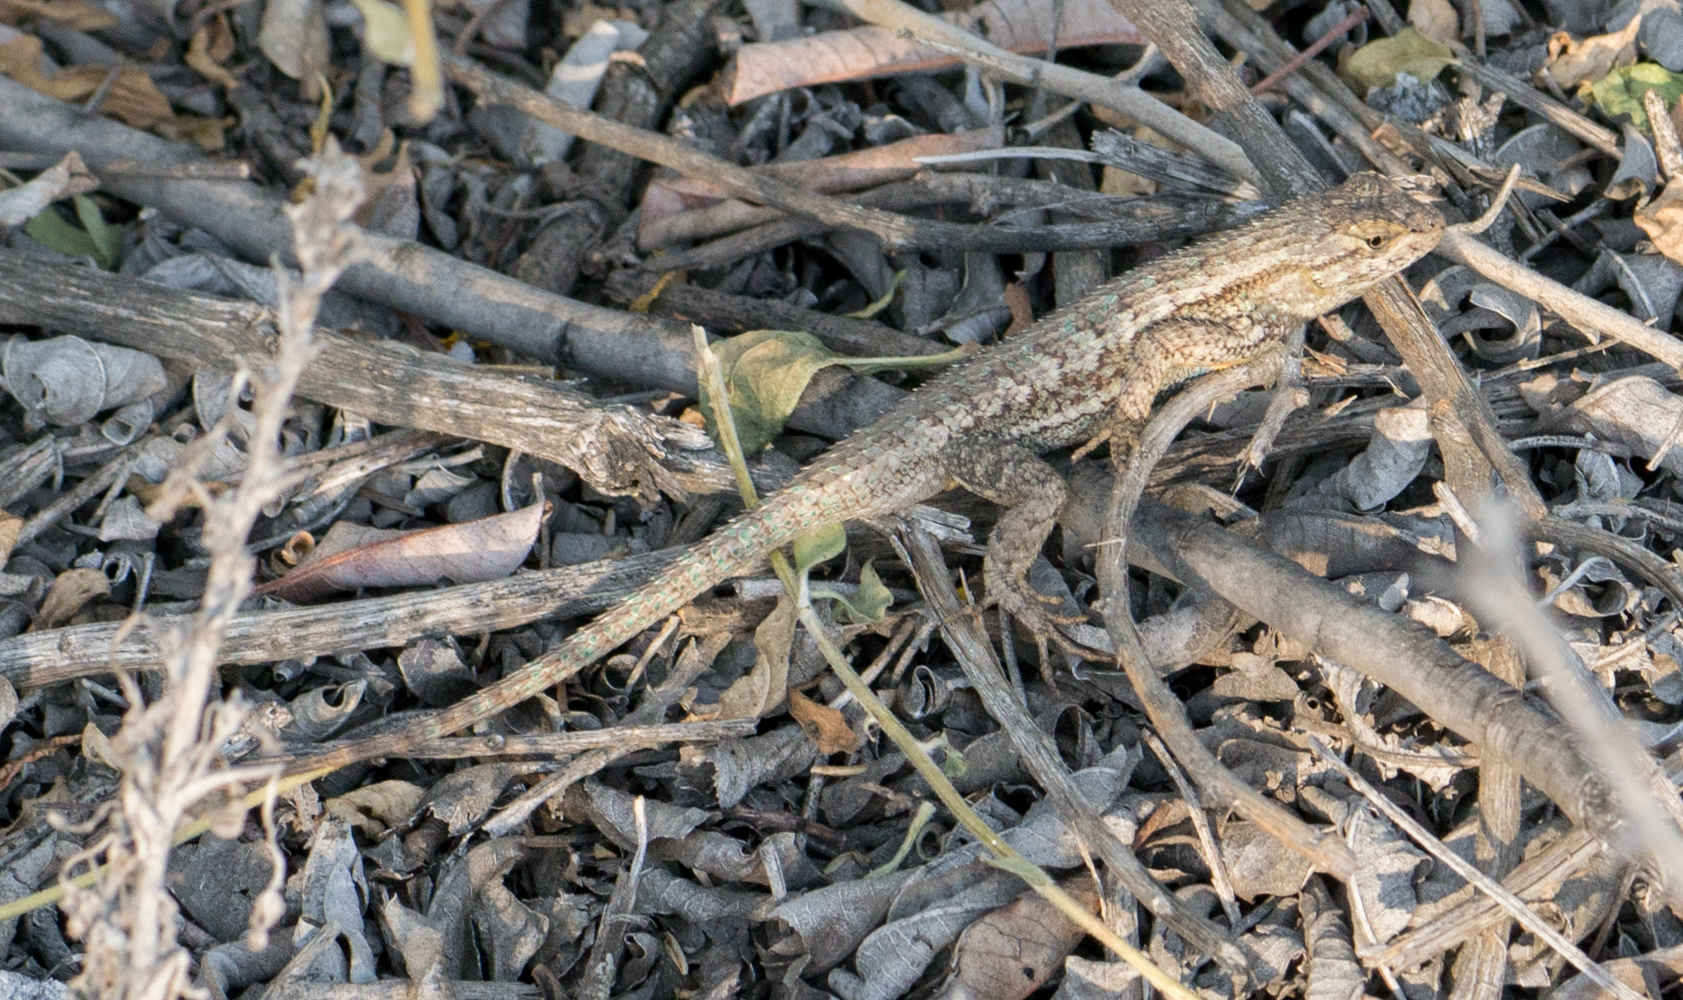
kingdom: Animalia
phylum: Chordata
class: Squamata
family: Phrynosomatidae
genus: Sceloporus
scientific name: Sceloporus occidentalis
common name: Western fence lizard
